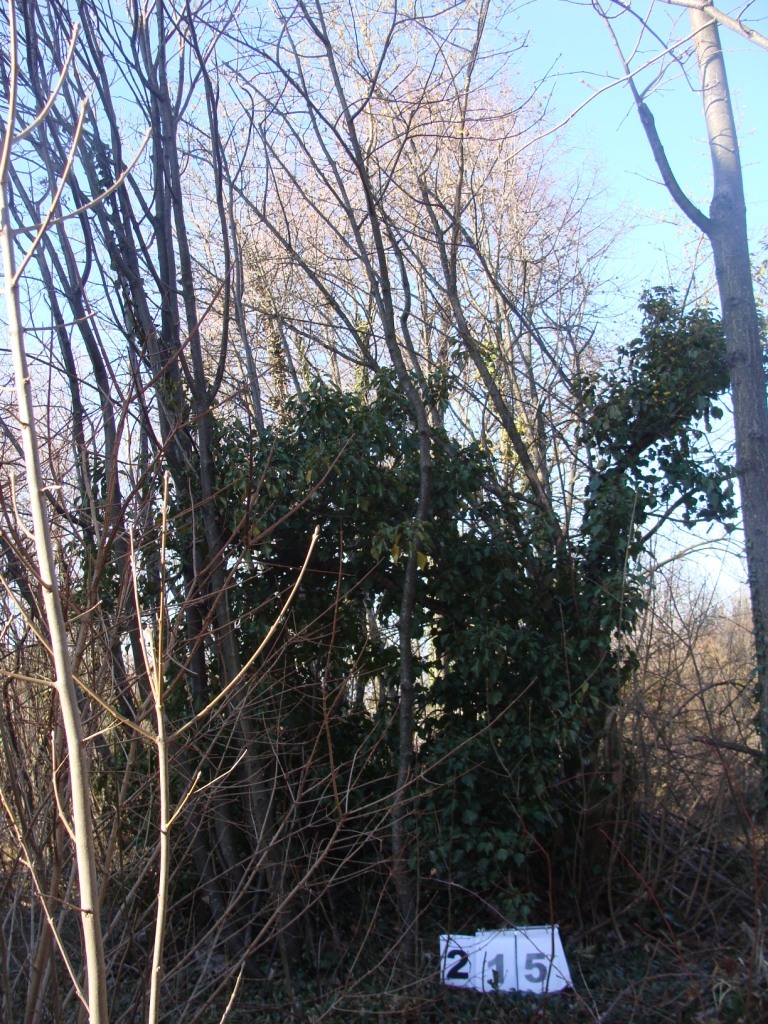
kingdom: Plantae
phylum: Tracheophyta
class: Magnoliopsida
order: Cornales
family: Cornaceae
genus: Cornus
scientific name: Cornus mas
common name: Cornelian-cherry
